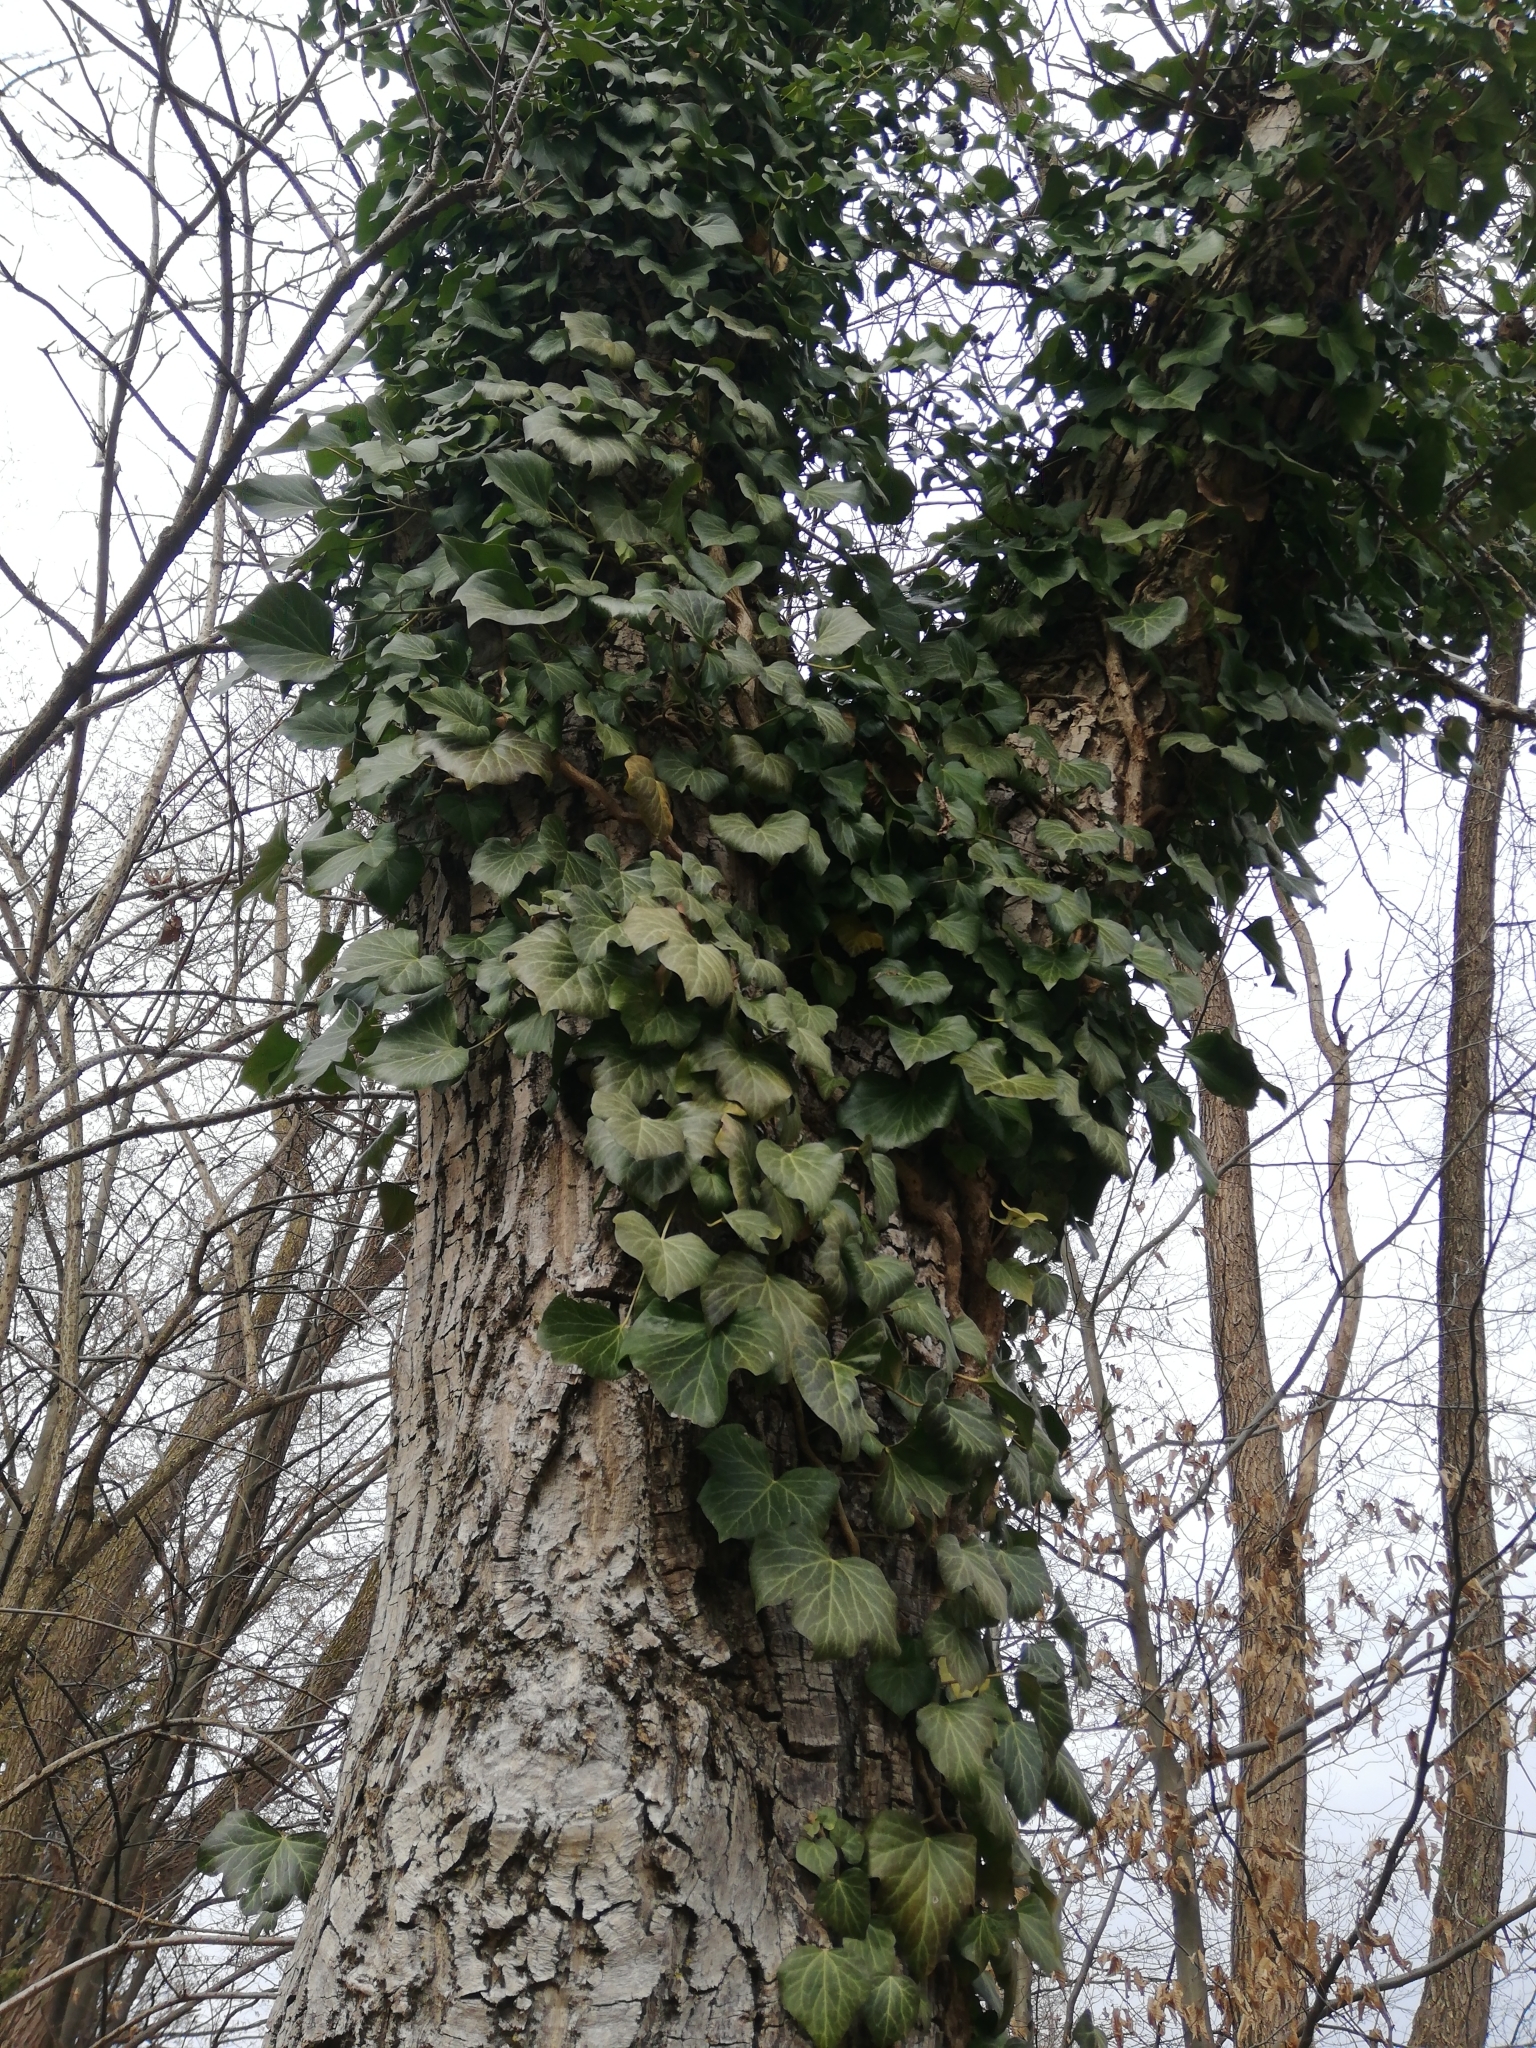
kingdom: Plantae
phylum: Tracheophyta
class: Magnoliopsida
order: Apiales
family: Araliaceae
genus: Hedera
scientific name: Hedera helix
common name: Ivy
